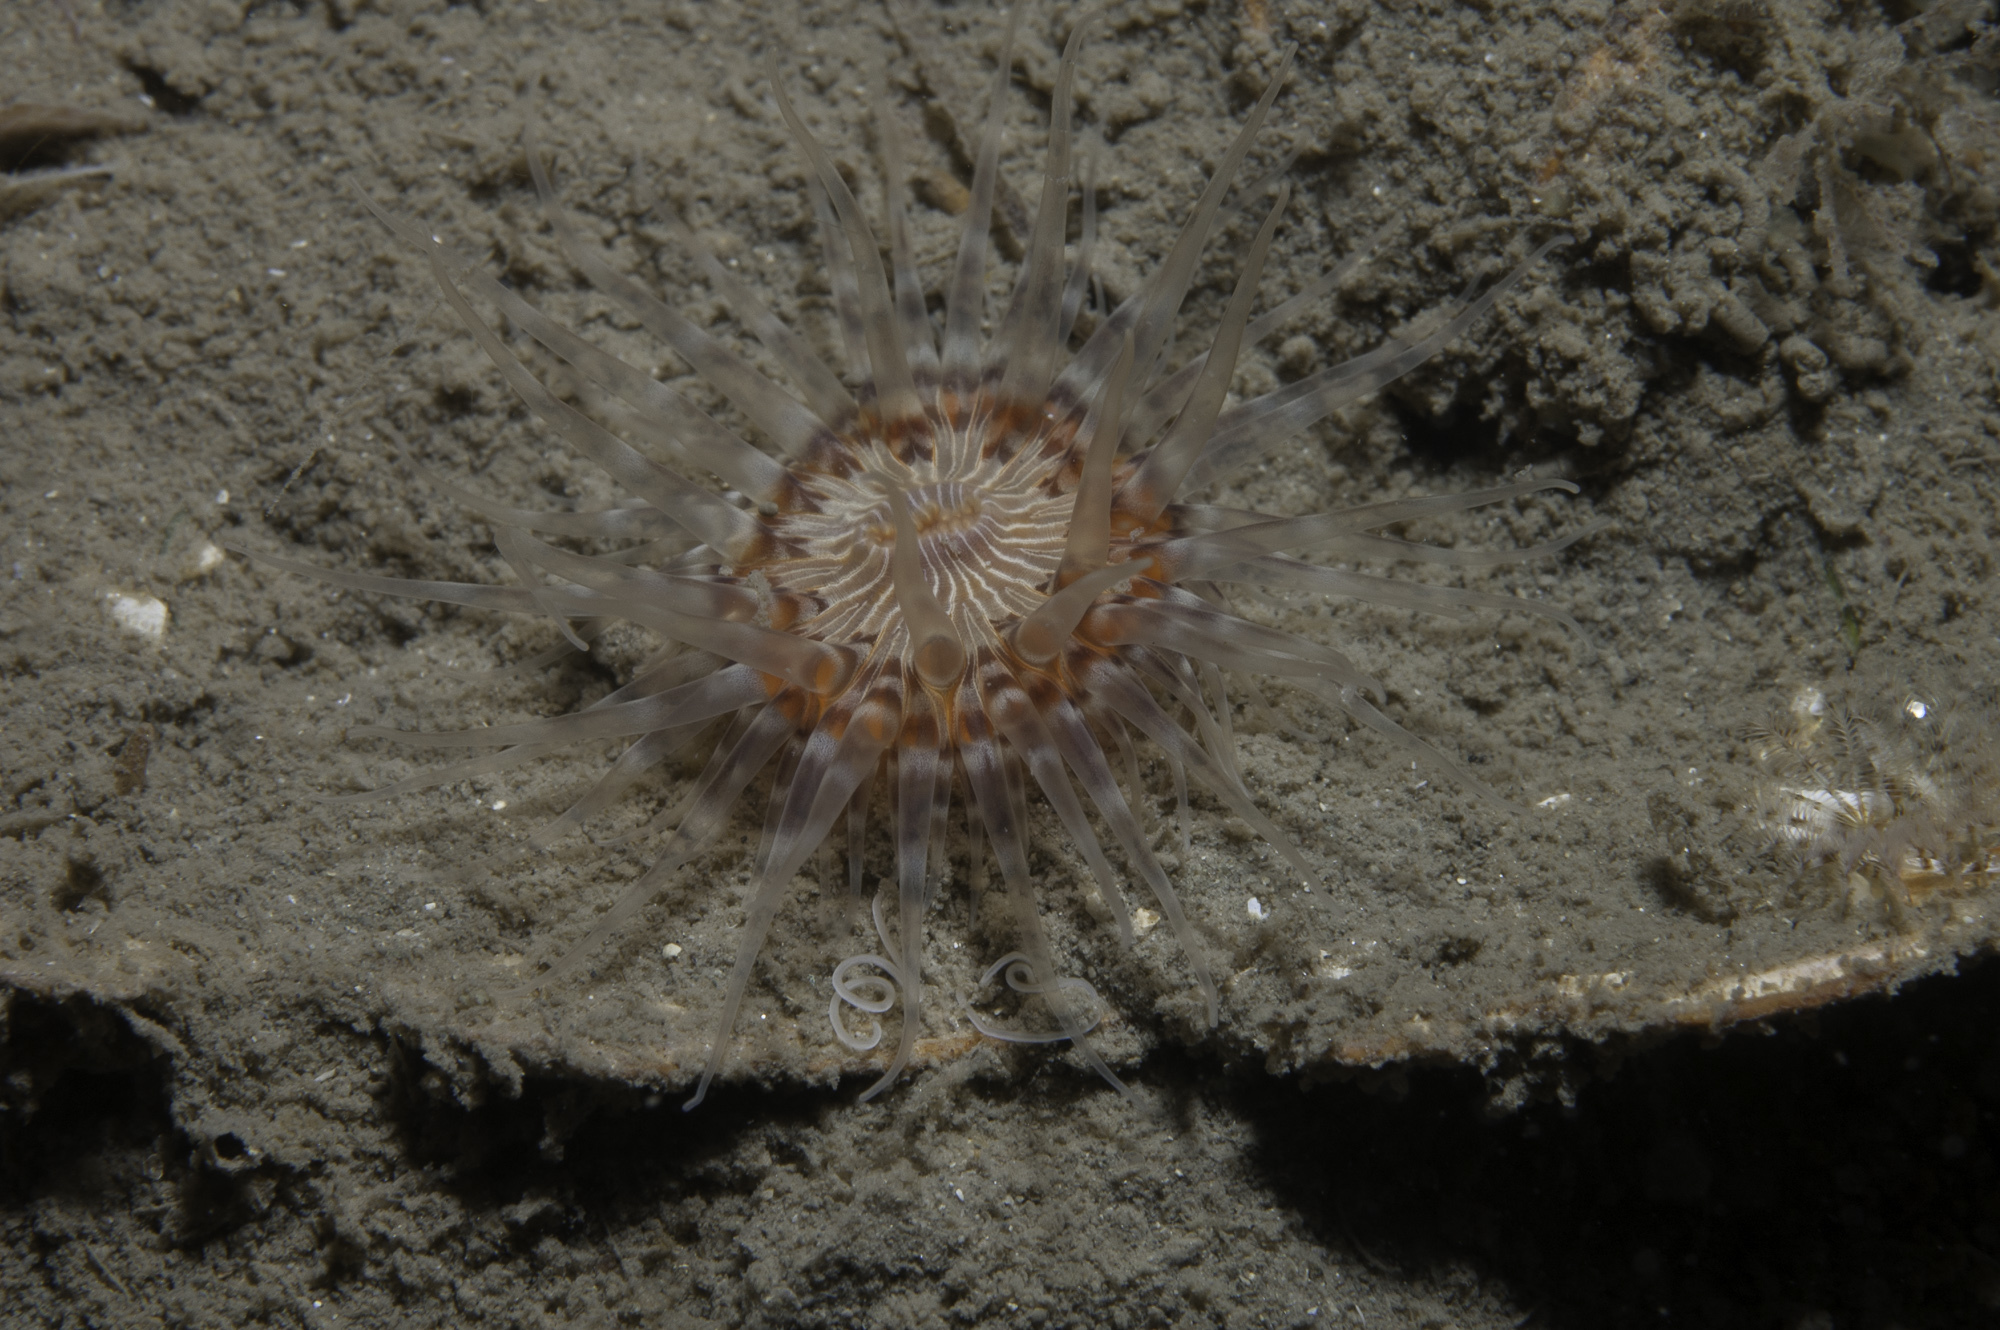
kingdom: Animalia
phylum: Cnidaria
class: Anthozoa
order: Actiniaria
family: Sagartiidae
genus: Sagartia
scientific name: Sagartia lacerata
